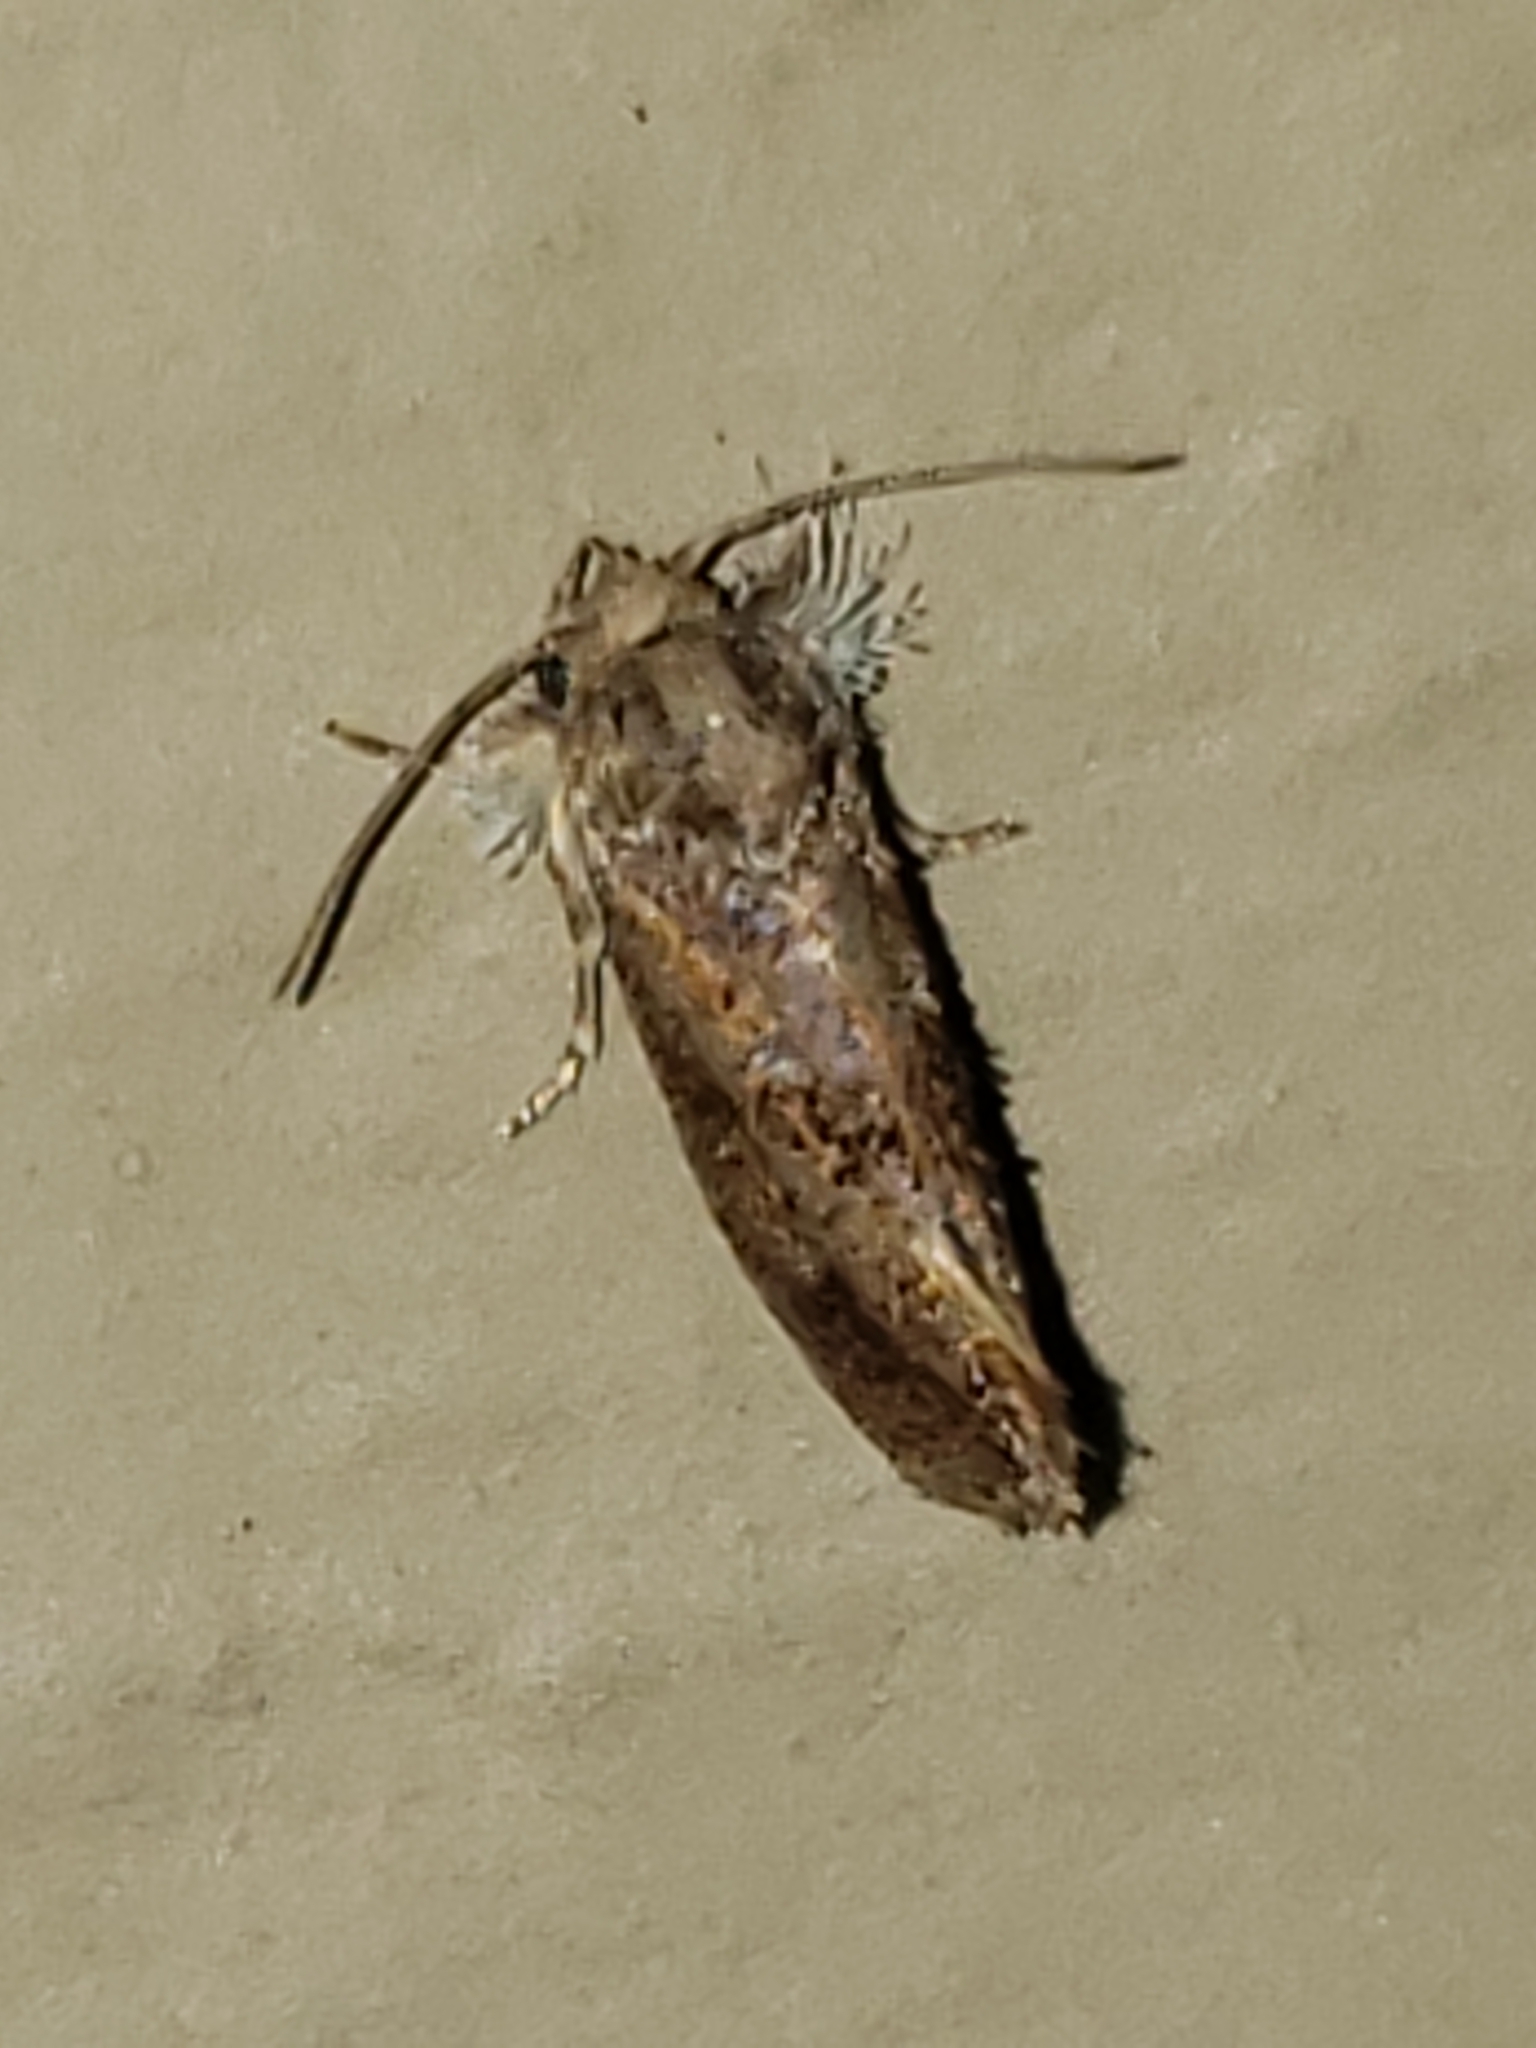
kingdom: Animalia
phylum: Arthropoda
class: Insecta
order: Lepidoptera
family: Tineidae
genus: Acrolophus
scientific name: Acrolophus panamae
